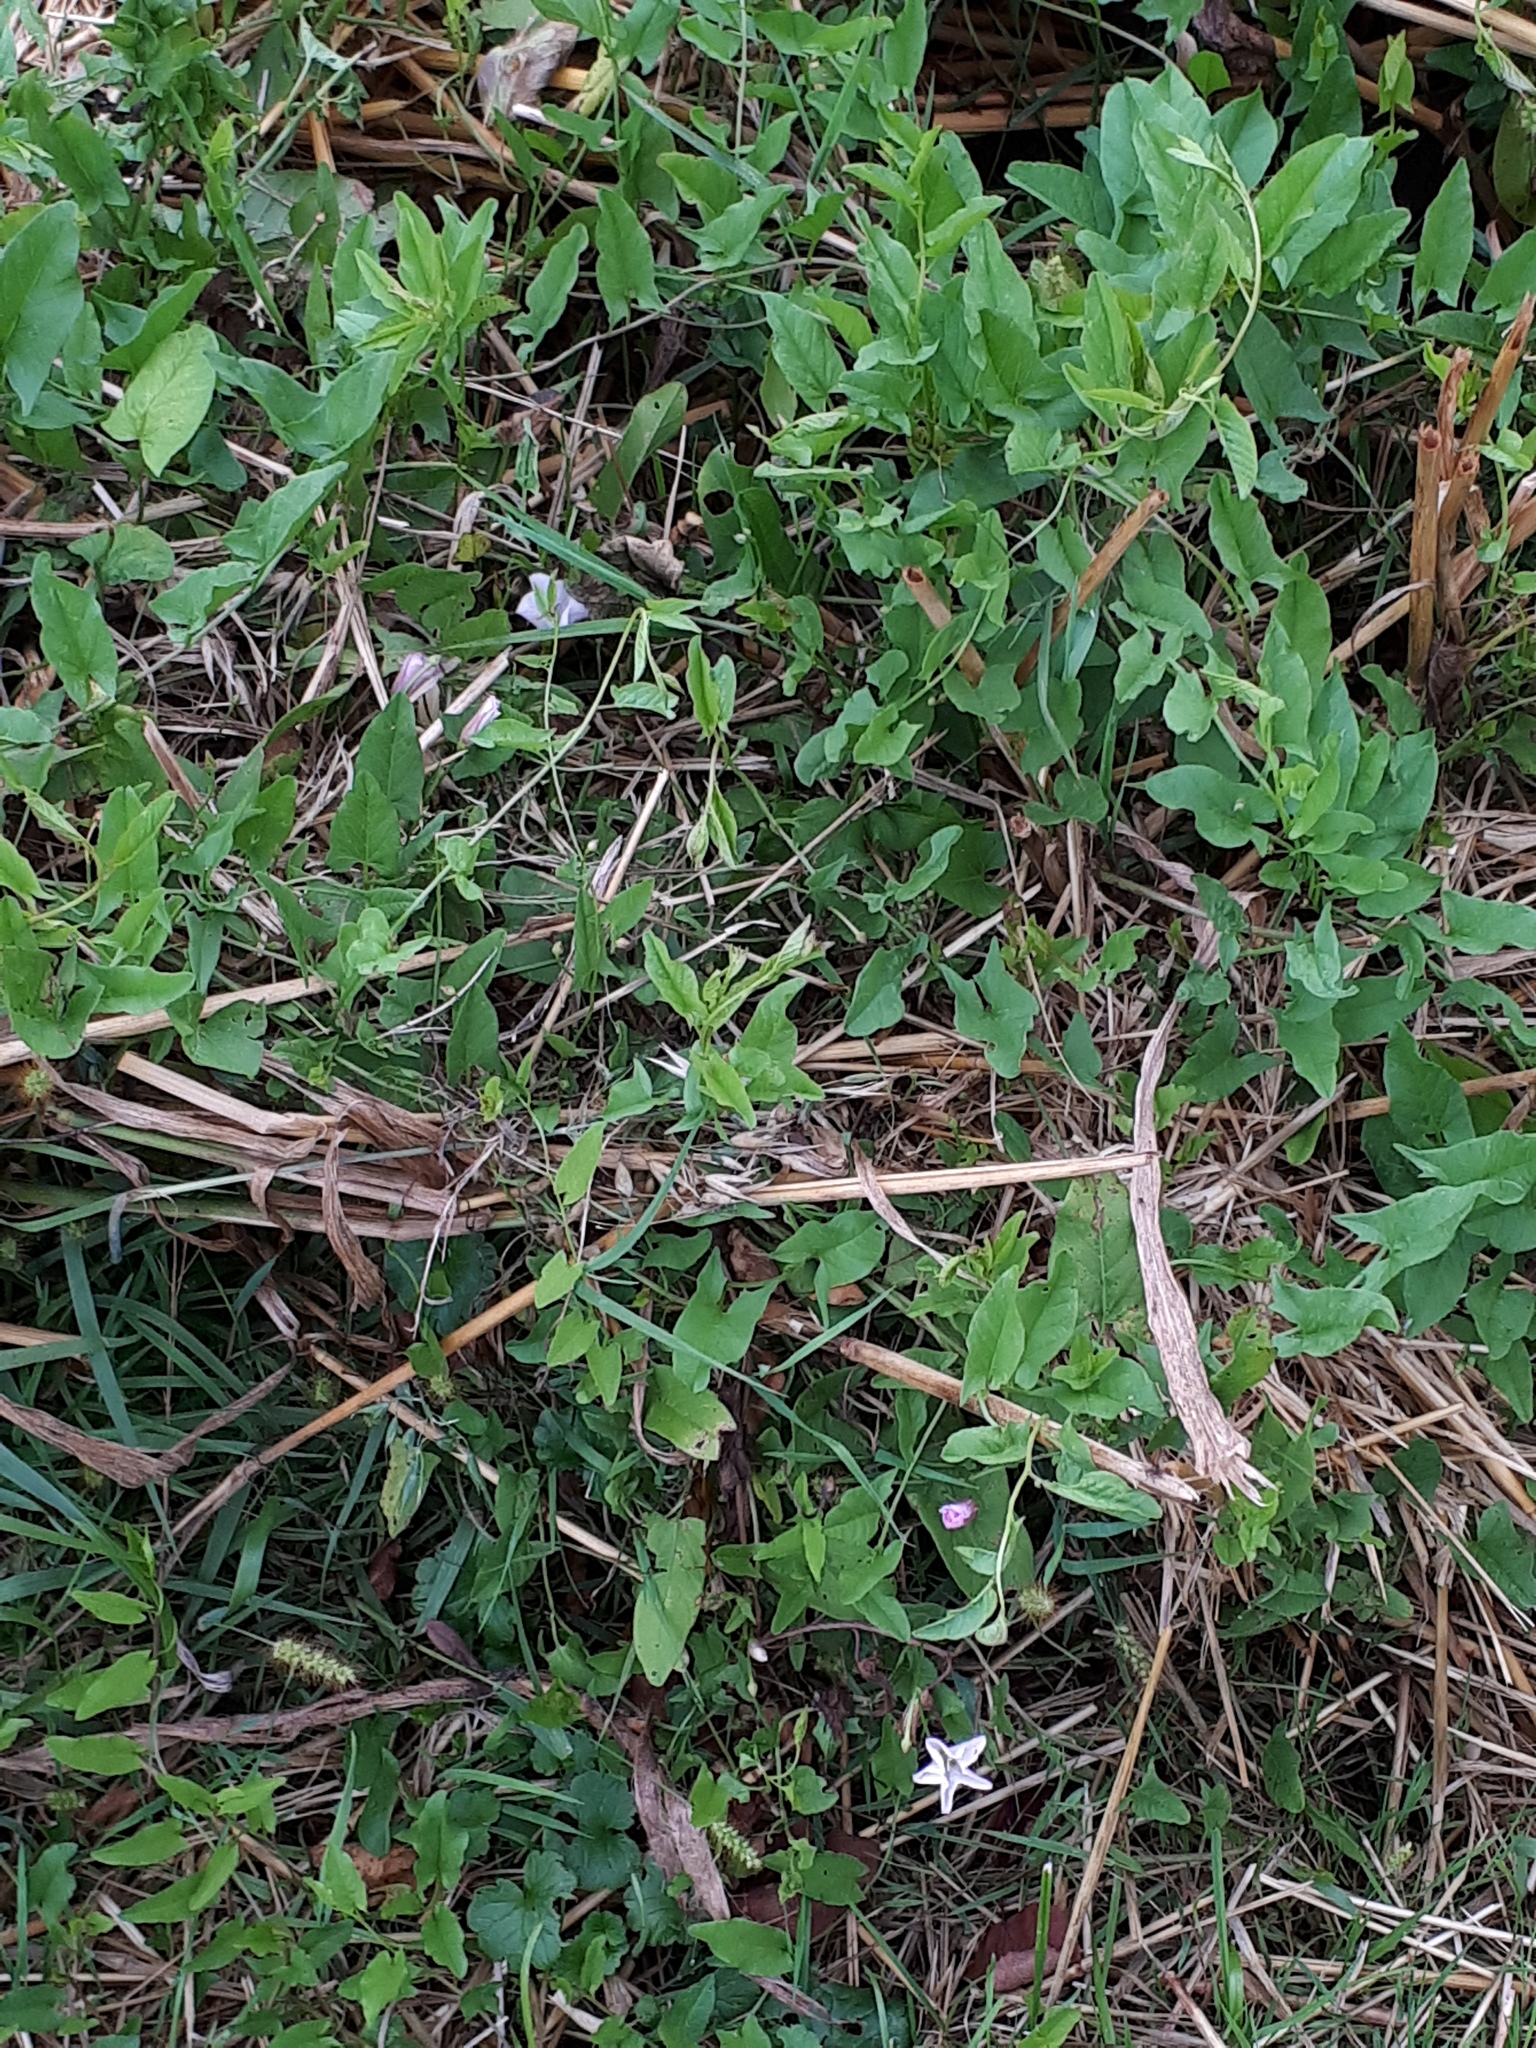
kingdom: Plantae
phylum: Tracheophyta
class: Magnoliopsida
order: Solanales
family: Convolvulaceae
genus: Convolvulus
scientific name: Convolvulus arvensis
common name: Field bindweed
